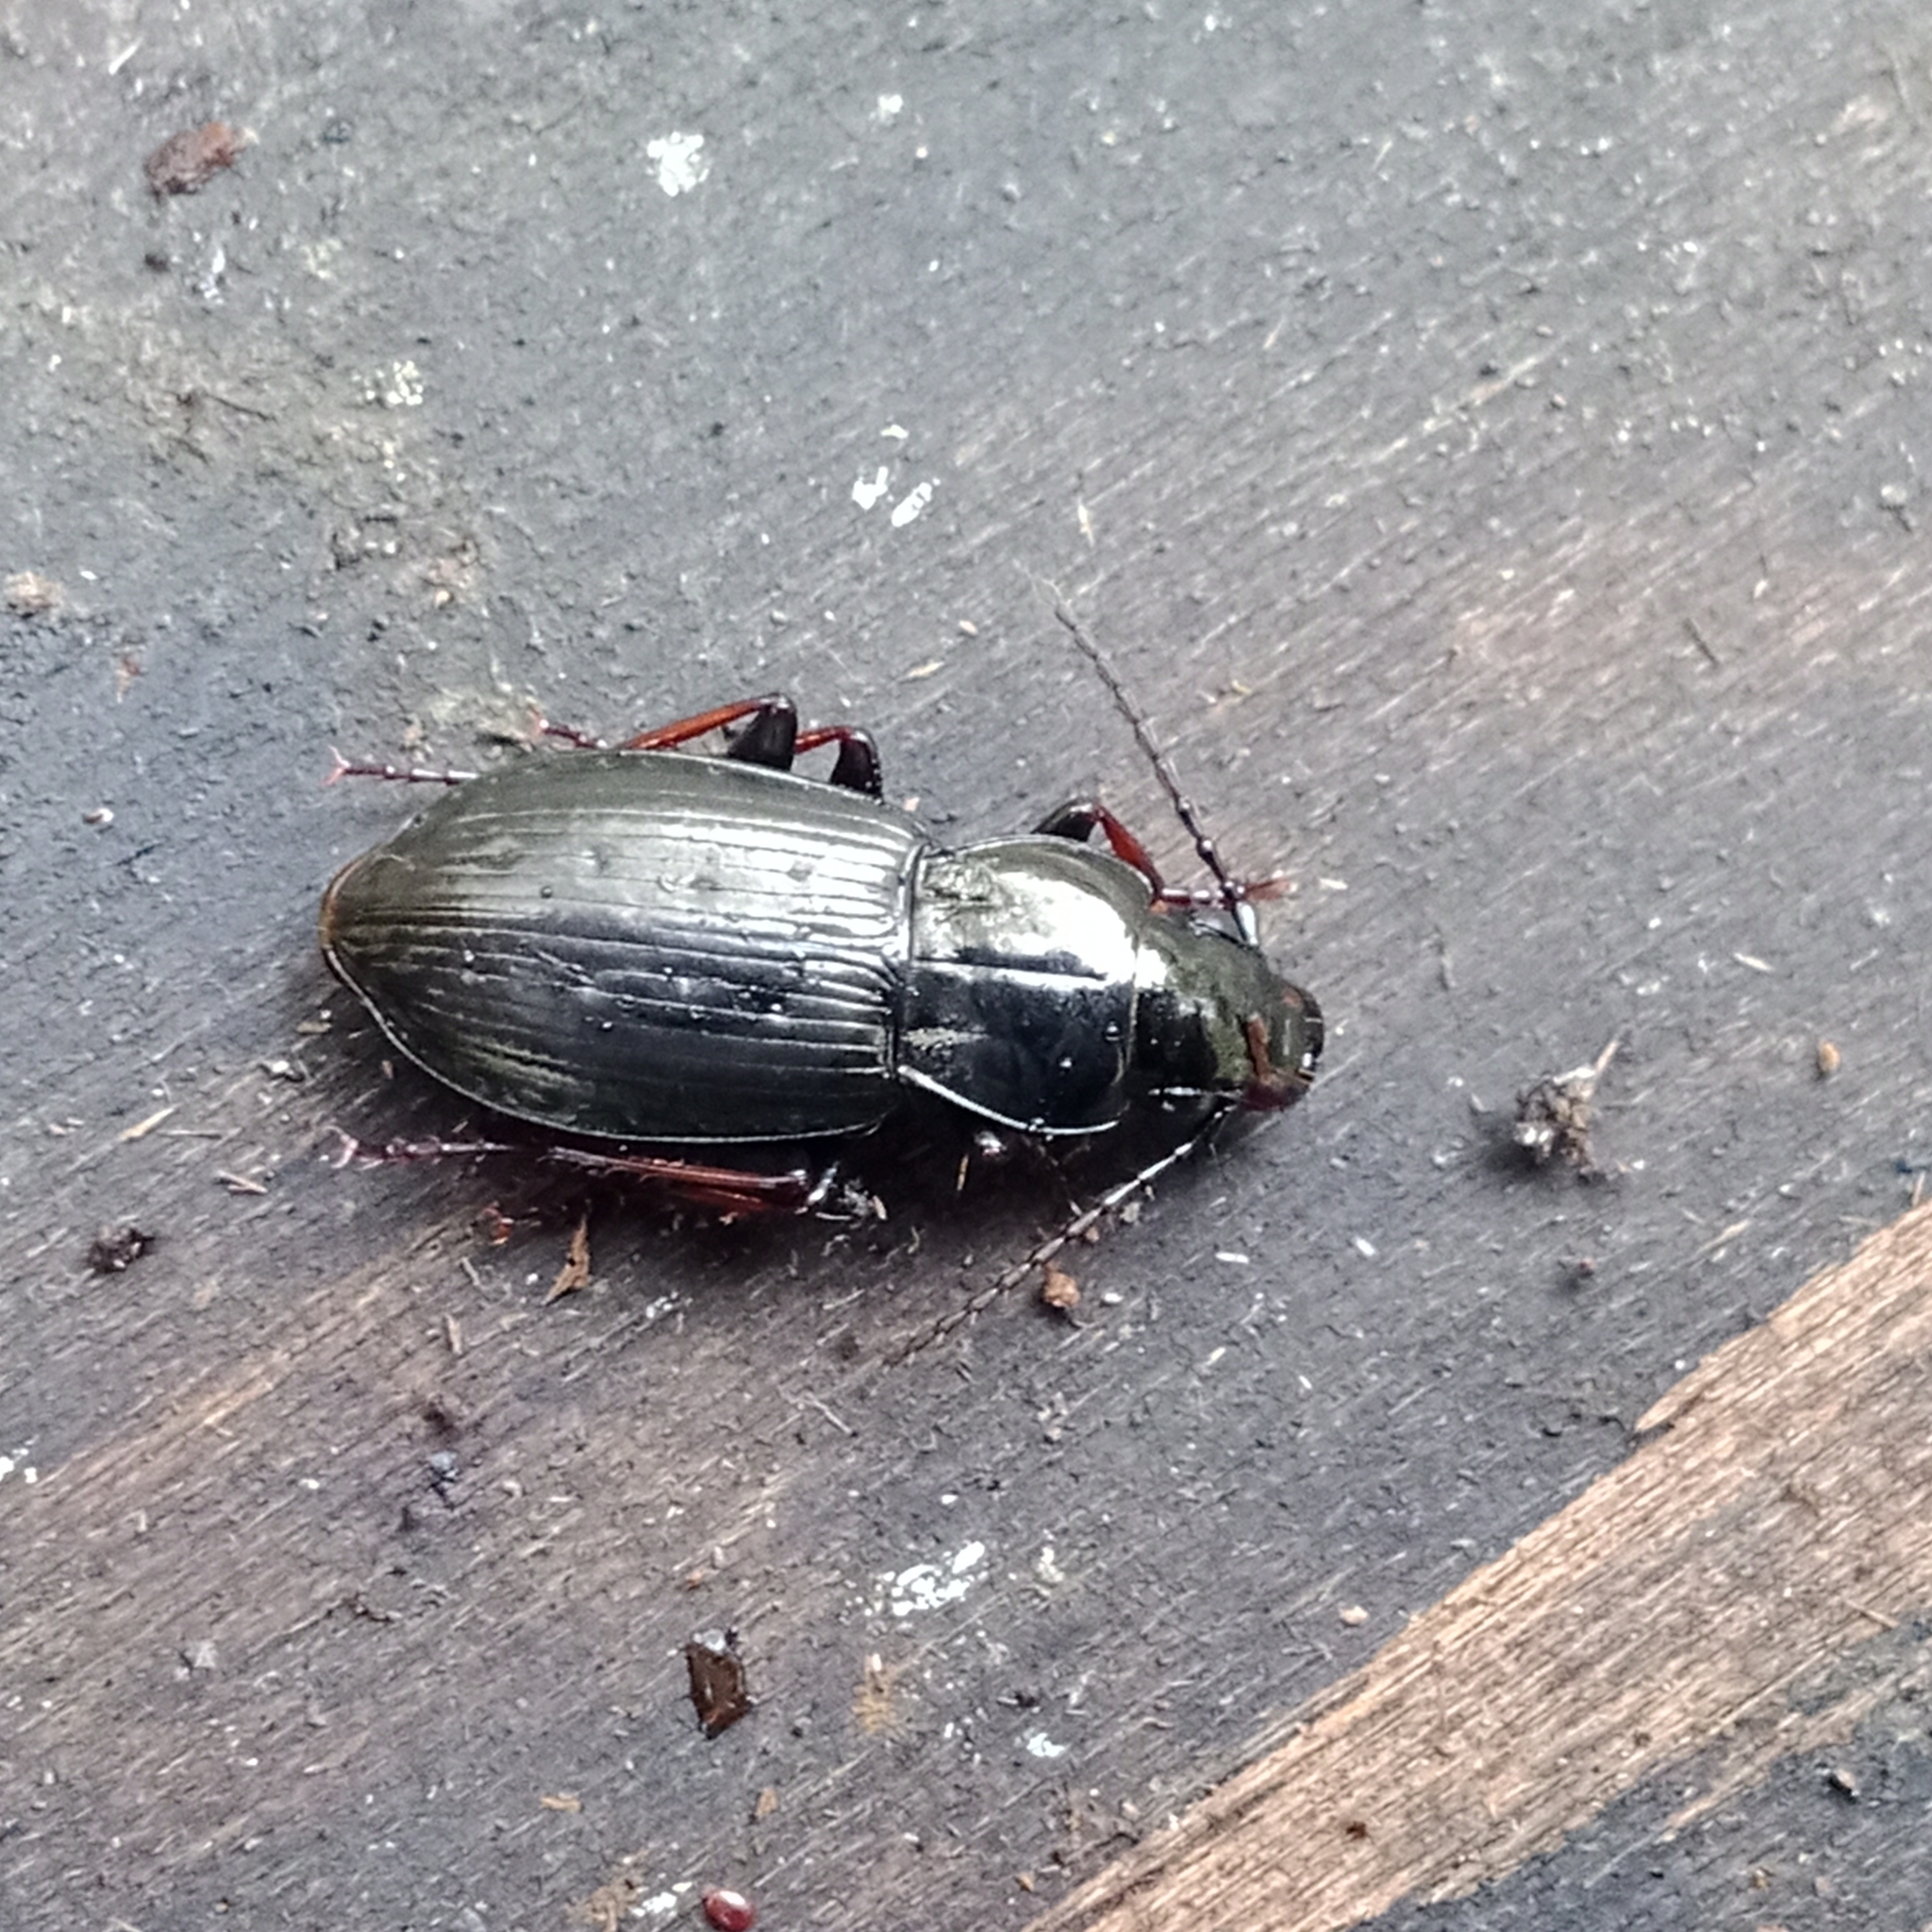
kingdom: Animalia
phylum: Arthropoda
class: Insecta
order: Coleoptera
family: Carabidae
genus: Pterostichus
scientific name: Pterostichus oblongopunctatus
